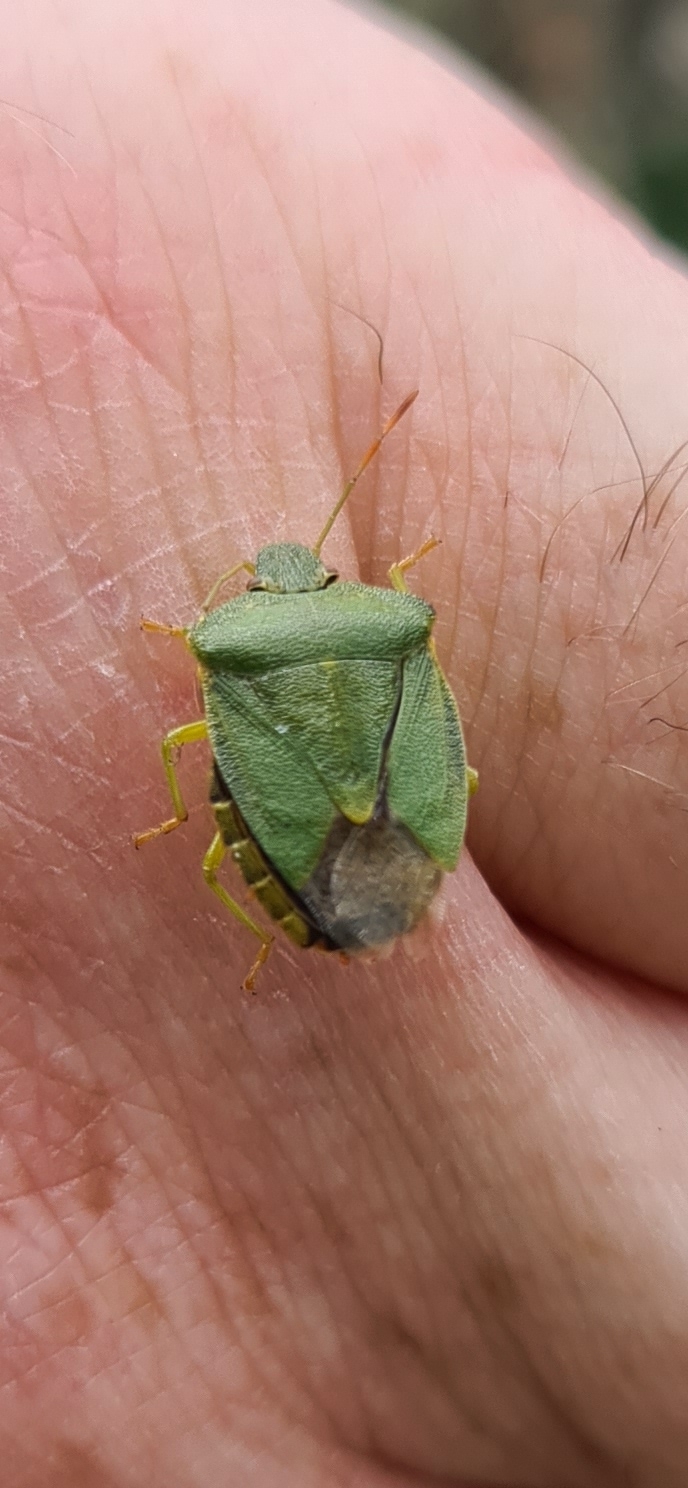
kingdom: Animalia
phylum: Arthropoda
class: Insecta
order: Hemiptera
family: Pentatomidae
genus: Palomena
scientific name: Palomena prasina
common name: Green shieldbug
